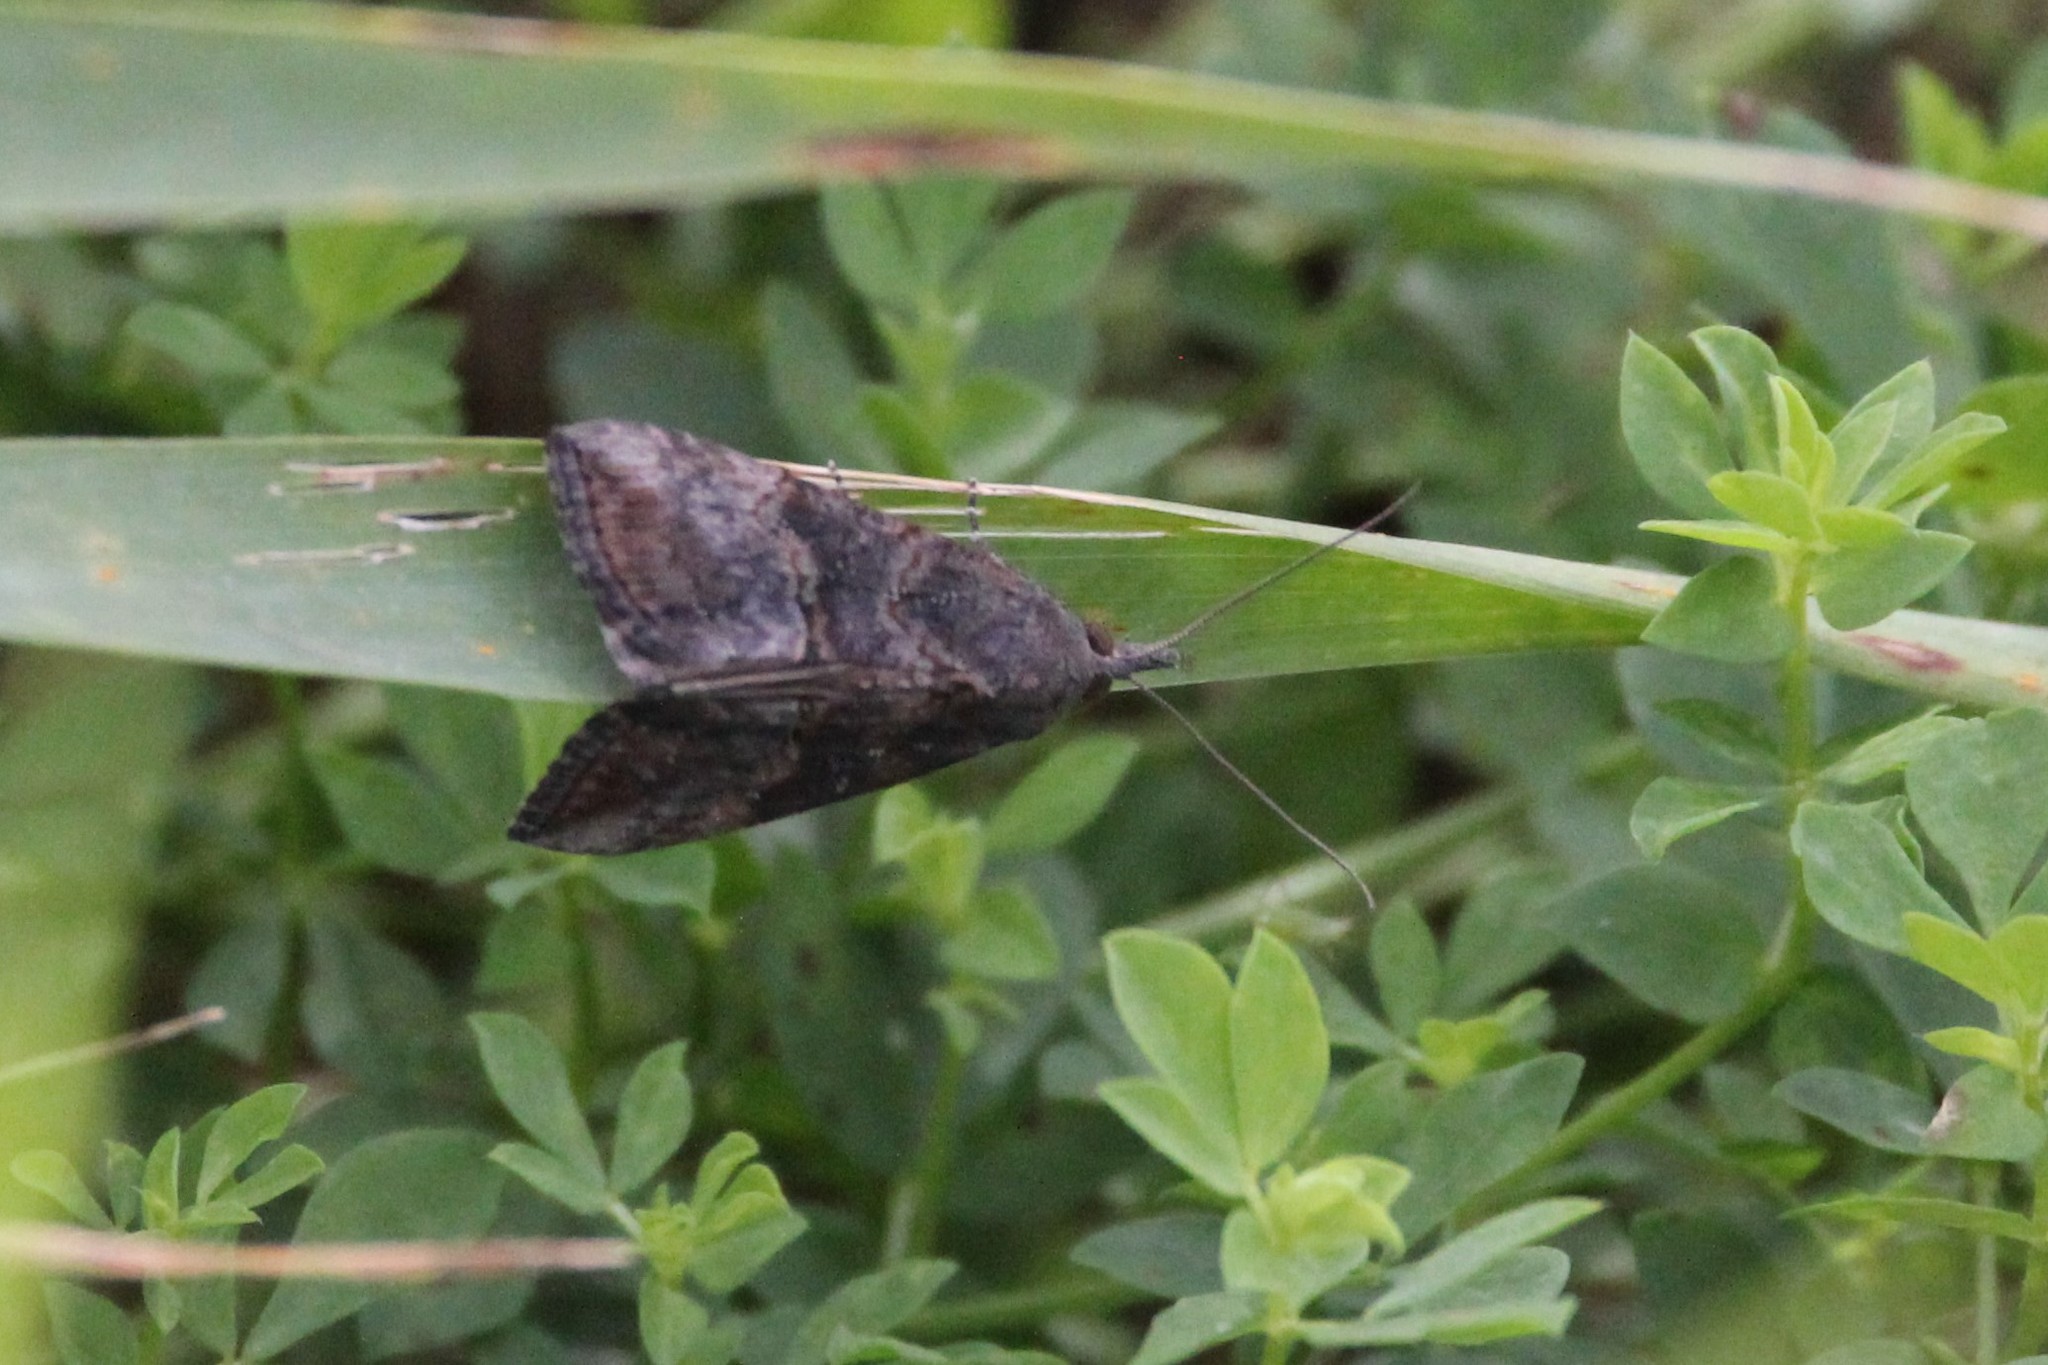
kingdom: Animalia
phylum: Arthropoda
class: Insecta
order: Lepidoptera
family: Erebidae
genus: Hypena
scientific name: Hypena scabra
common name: Green cloverworm
